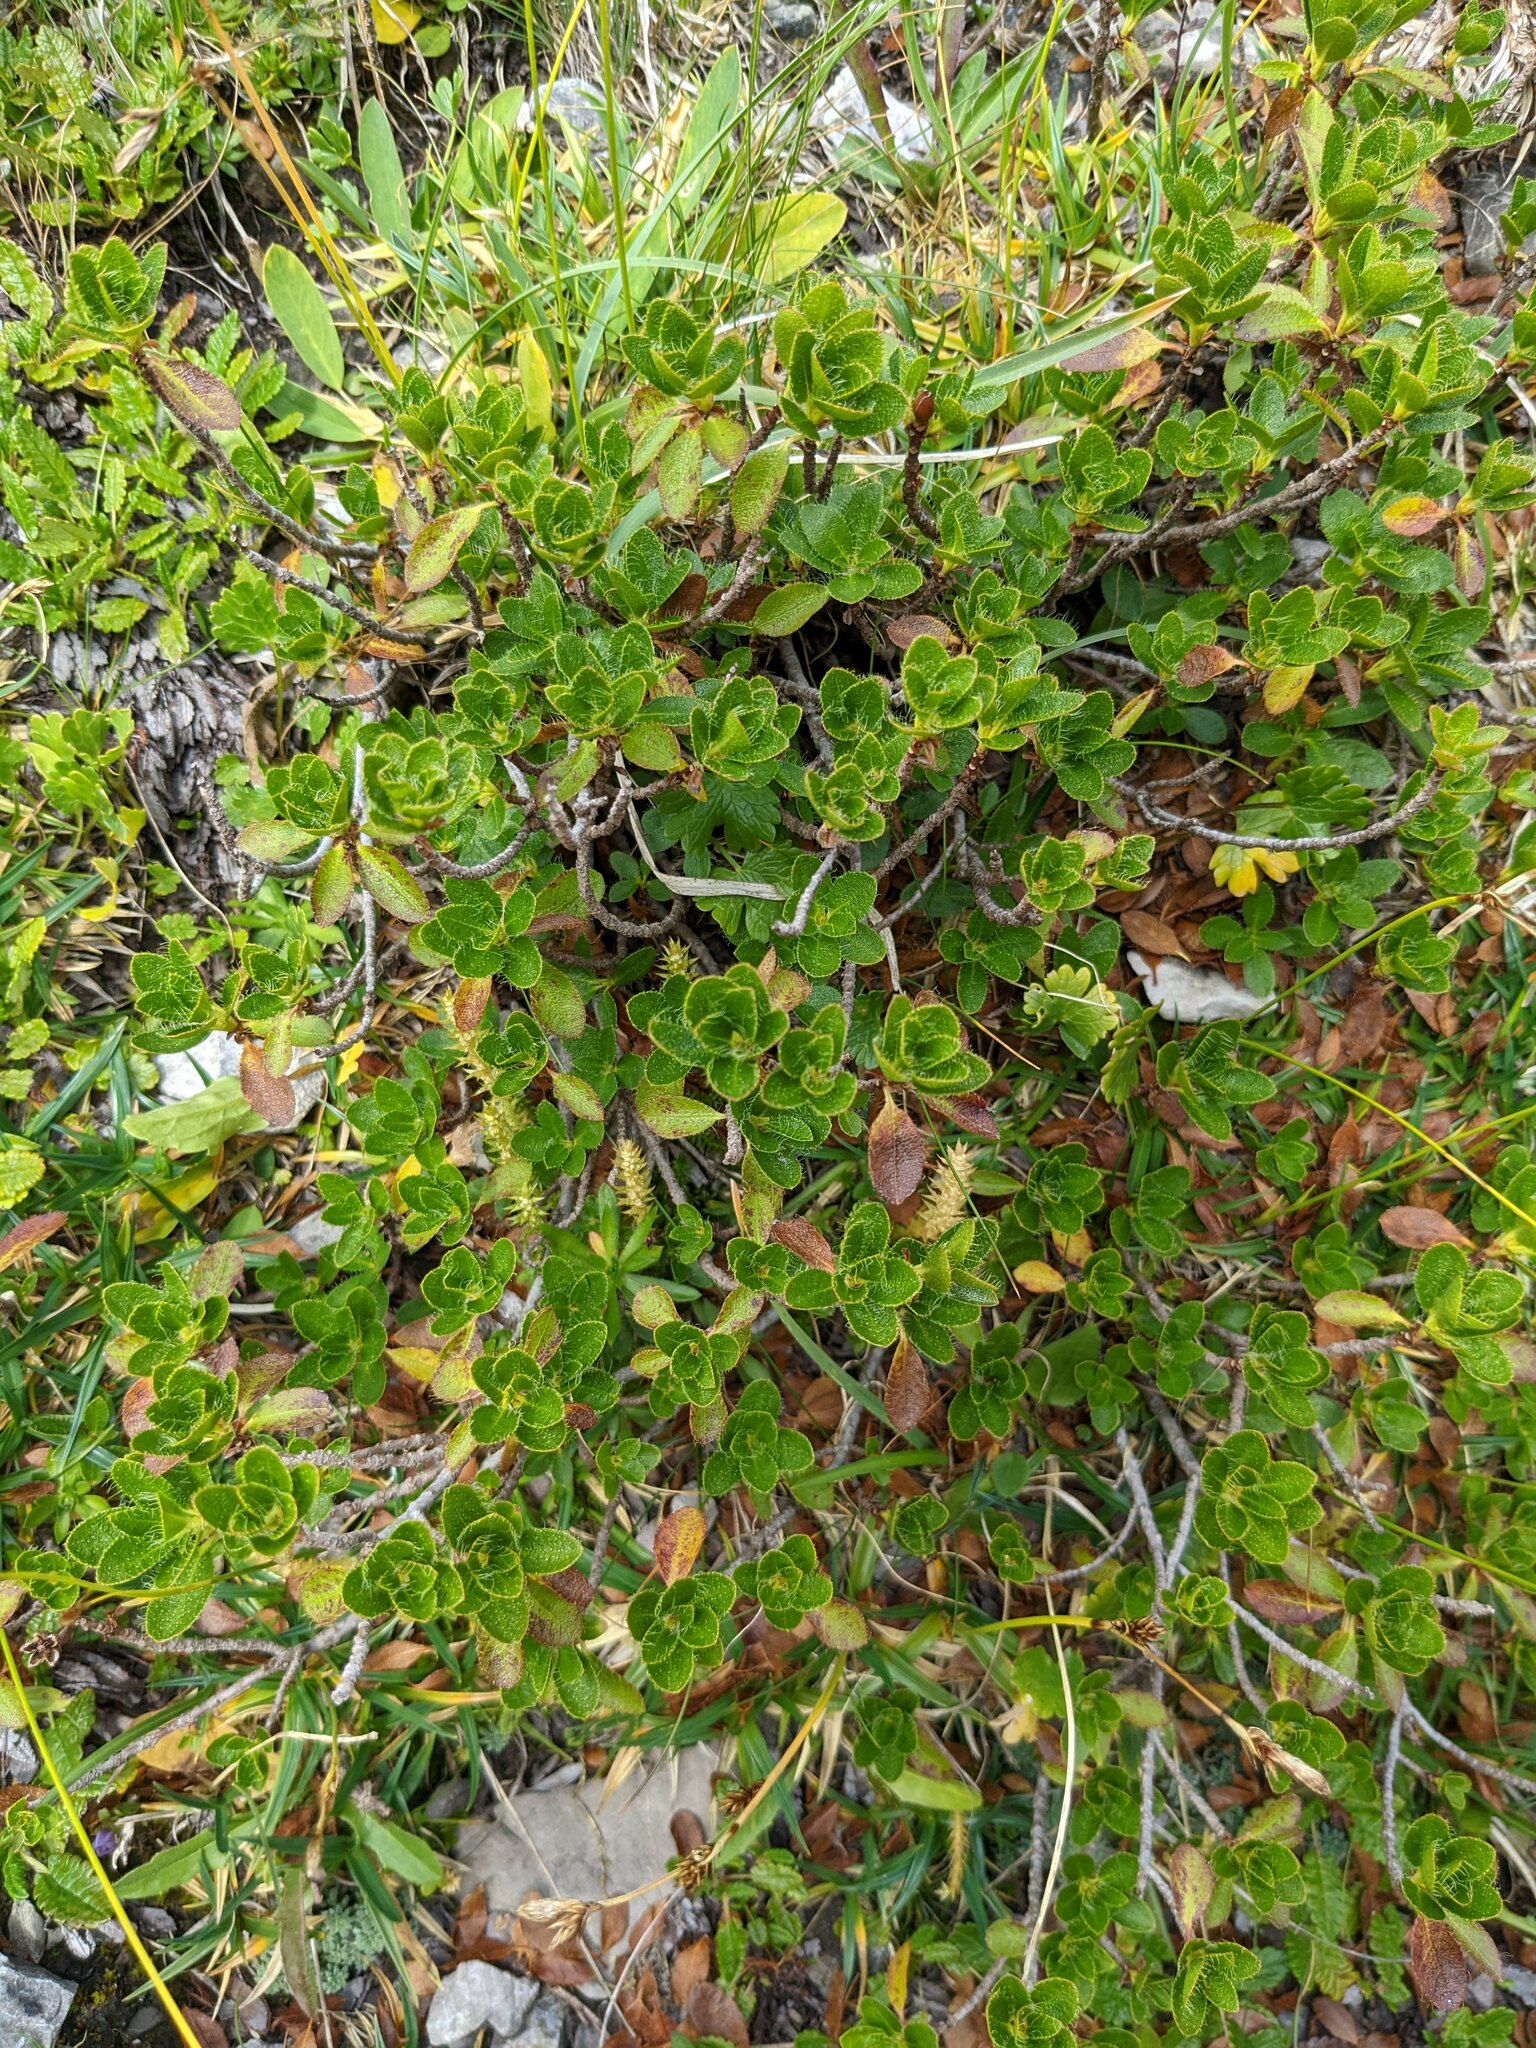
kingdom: Plantae
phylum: Tracheophyta
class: Magnoliopsida
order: Rosales
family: Rosaceae
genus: Dryas
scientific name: Dryas octopetala
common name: Eight-petal mountain-avens
